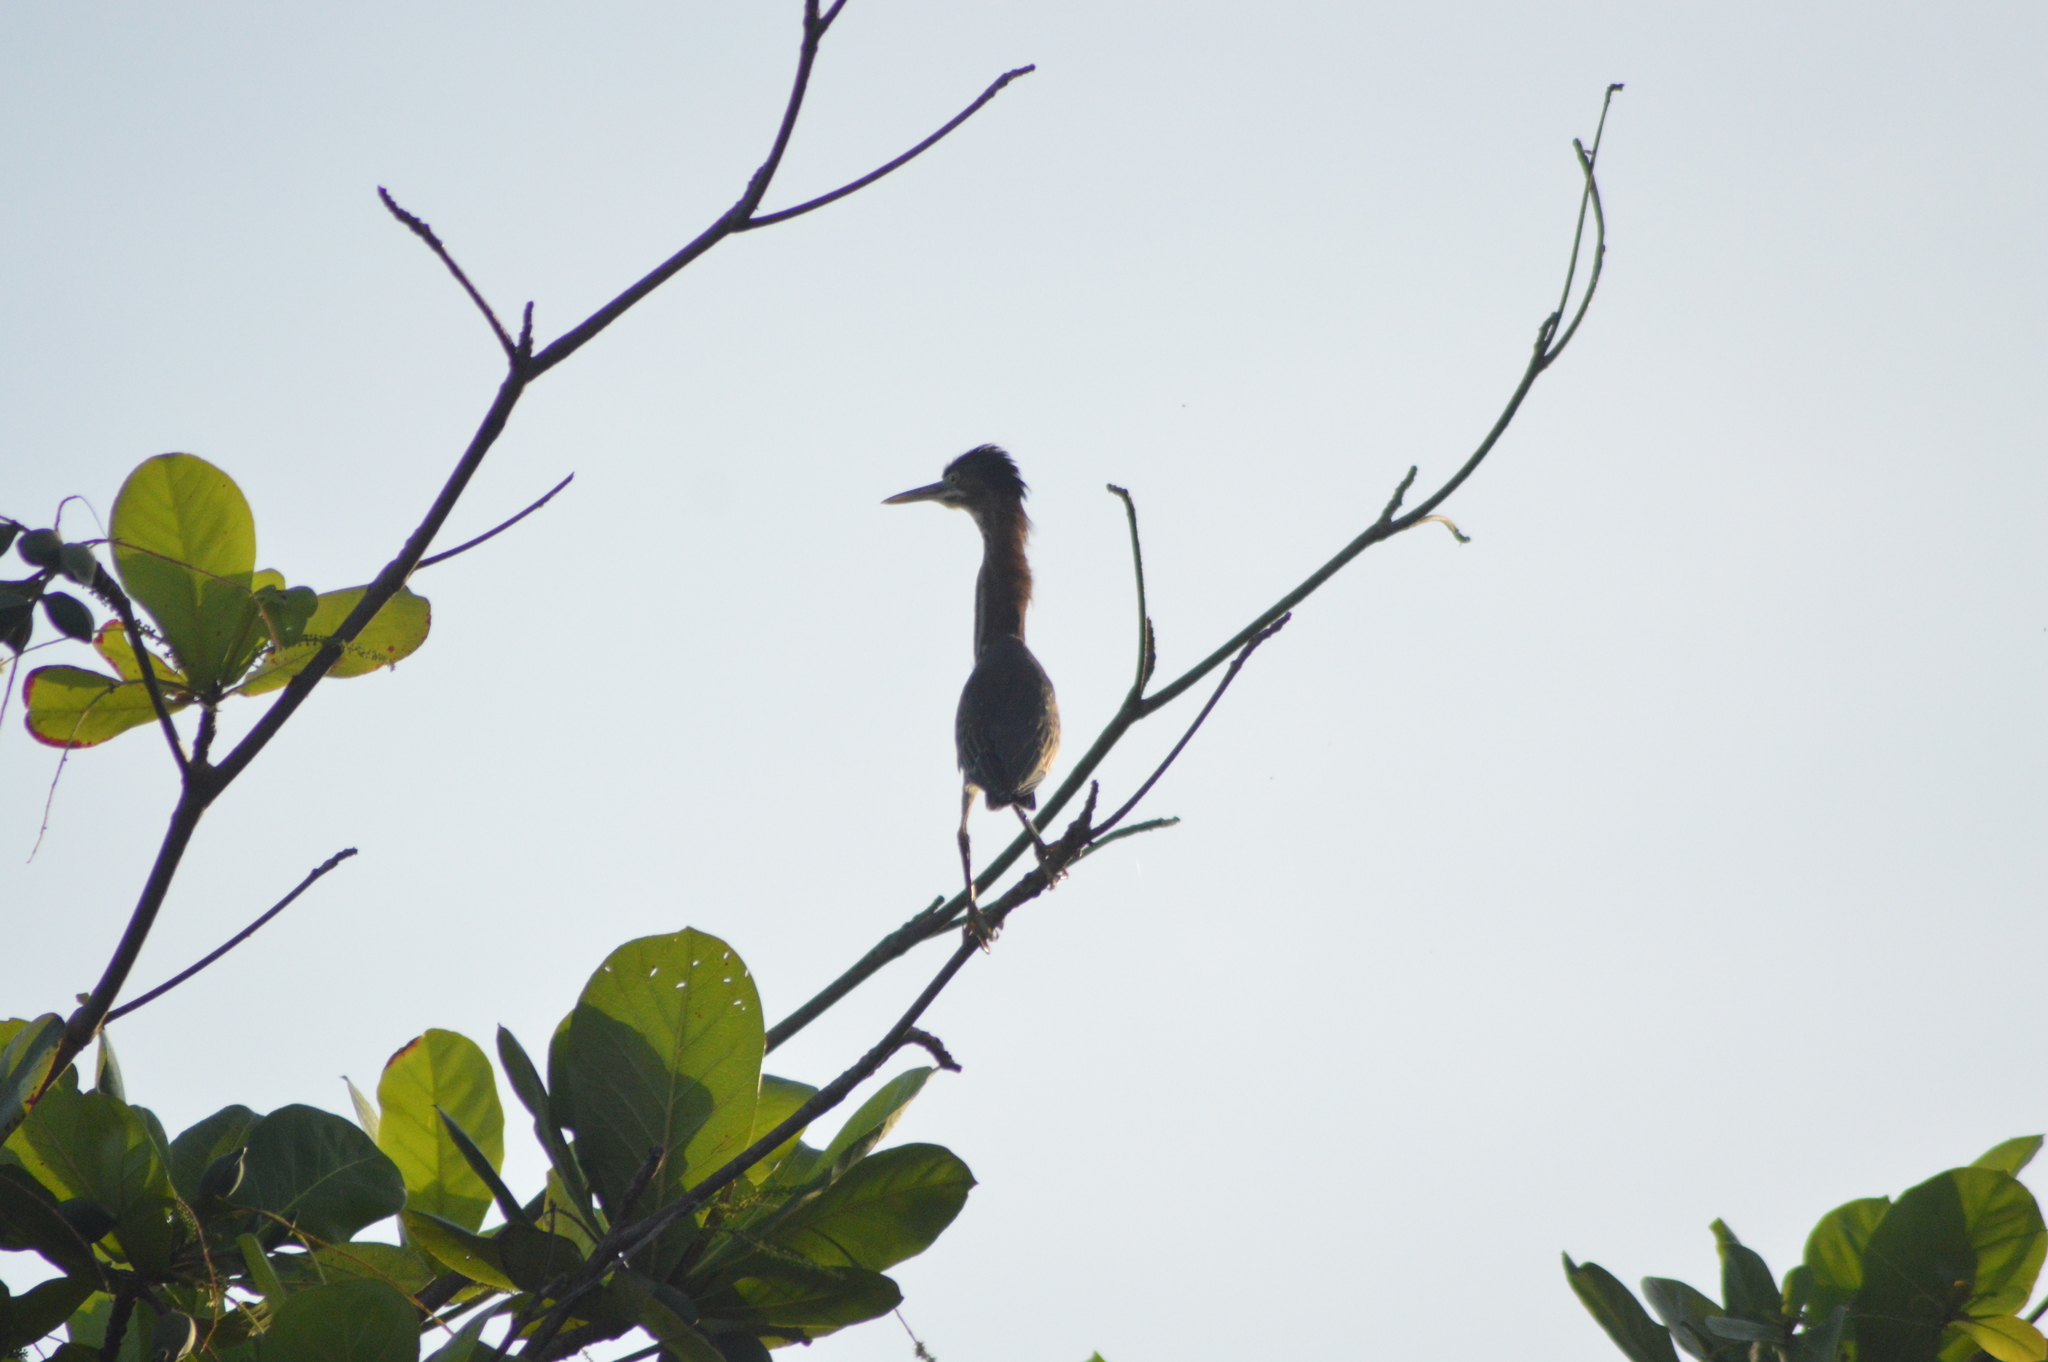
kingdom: Animalia
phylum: Chordata
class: Aves
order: Pelecaniformes
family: Ardeidae
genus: Butorides
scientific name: Butorides virescens
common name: Green heron
